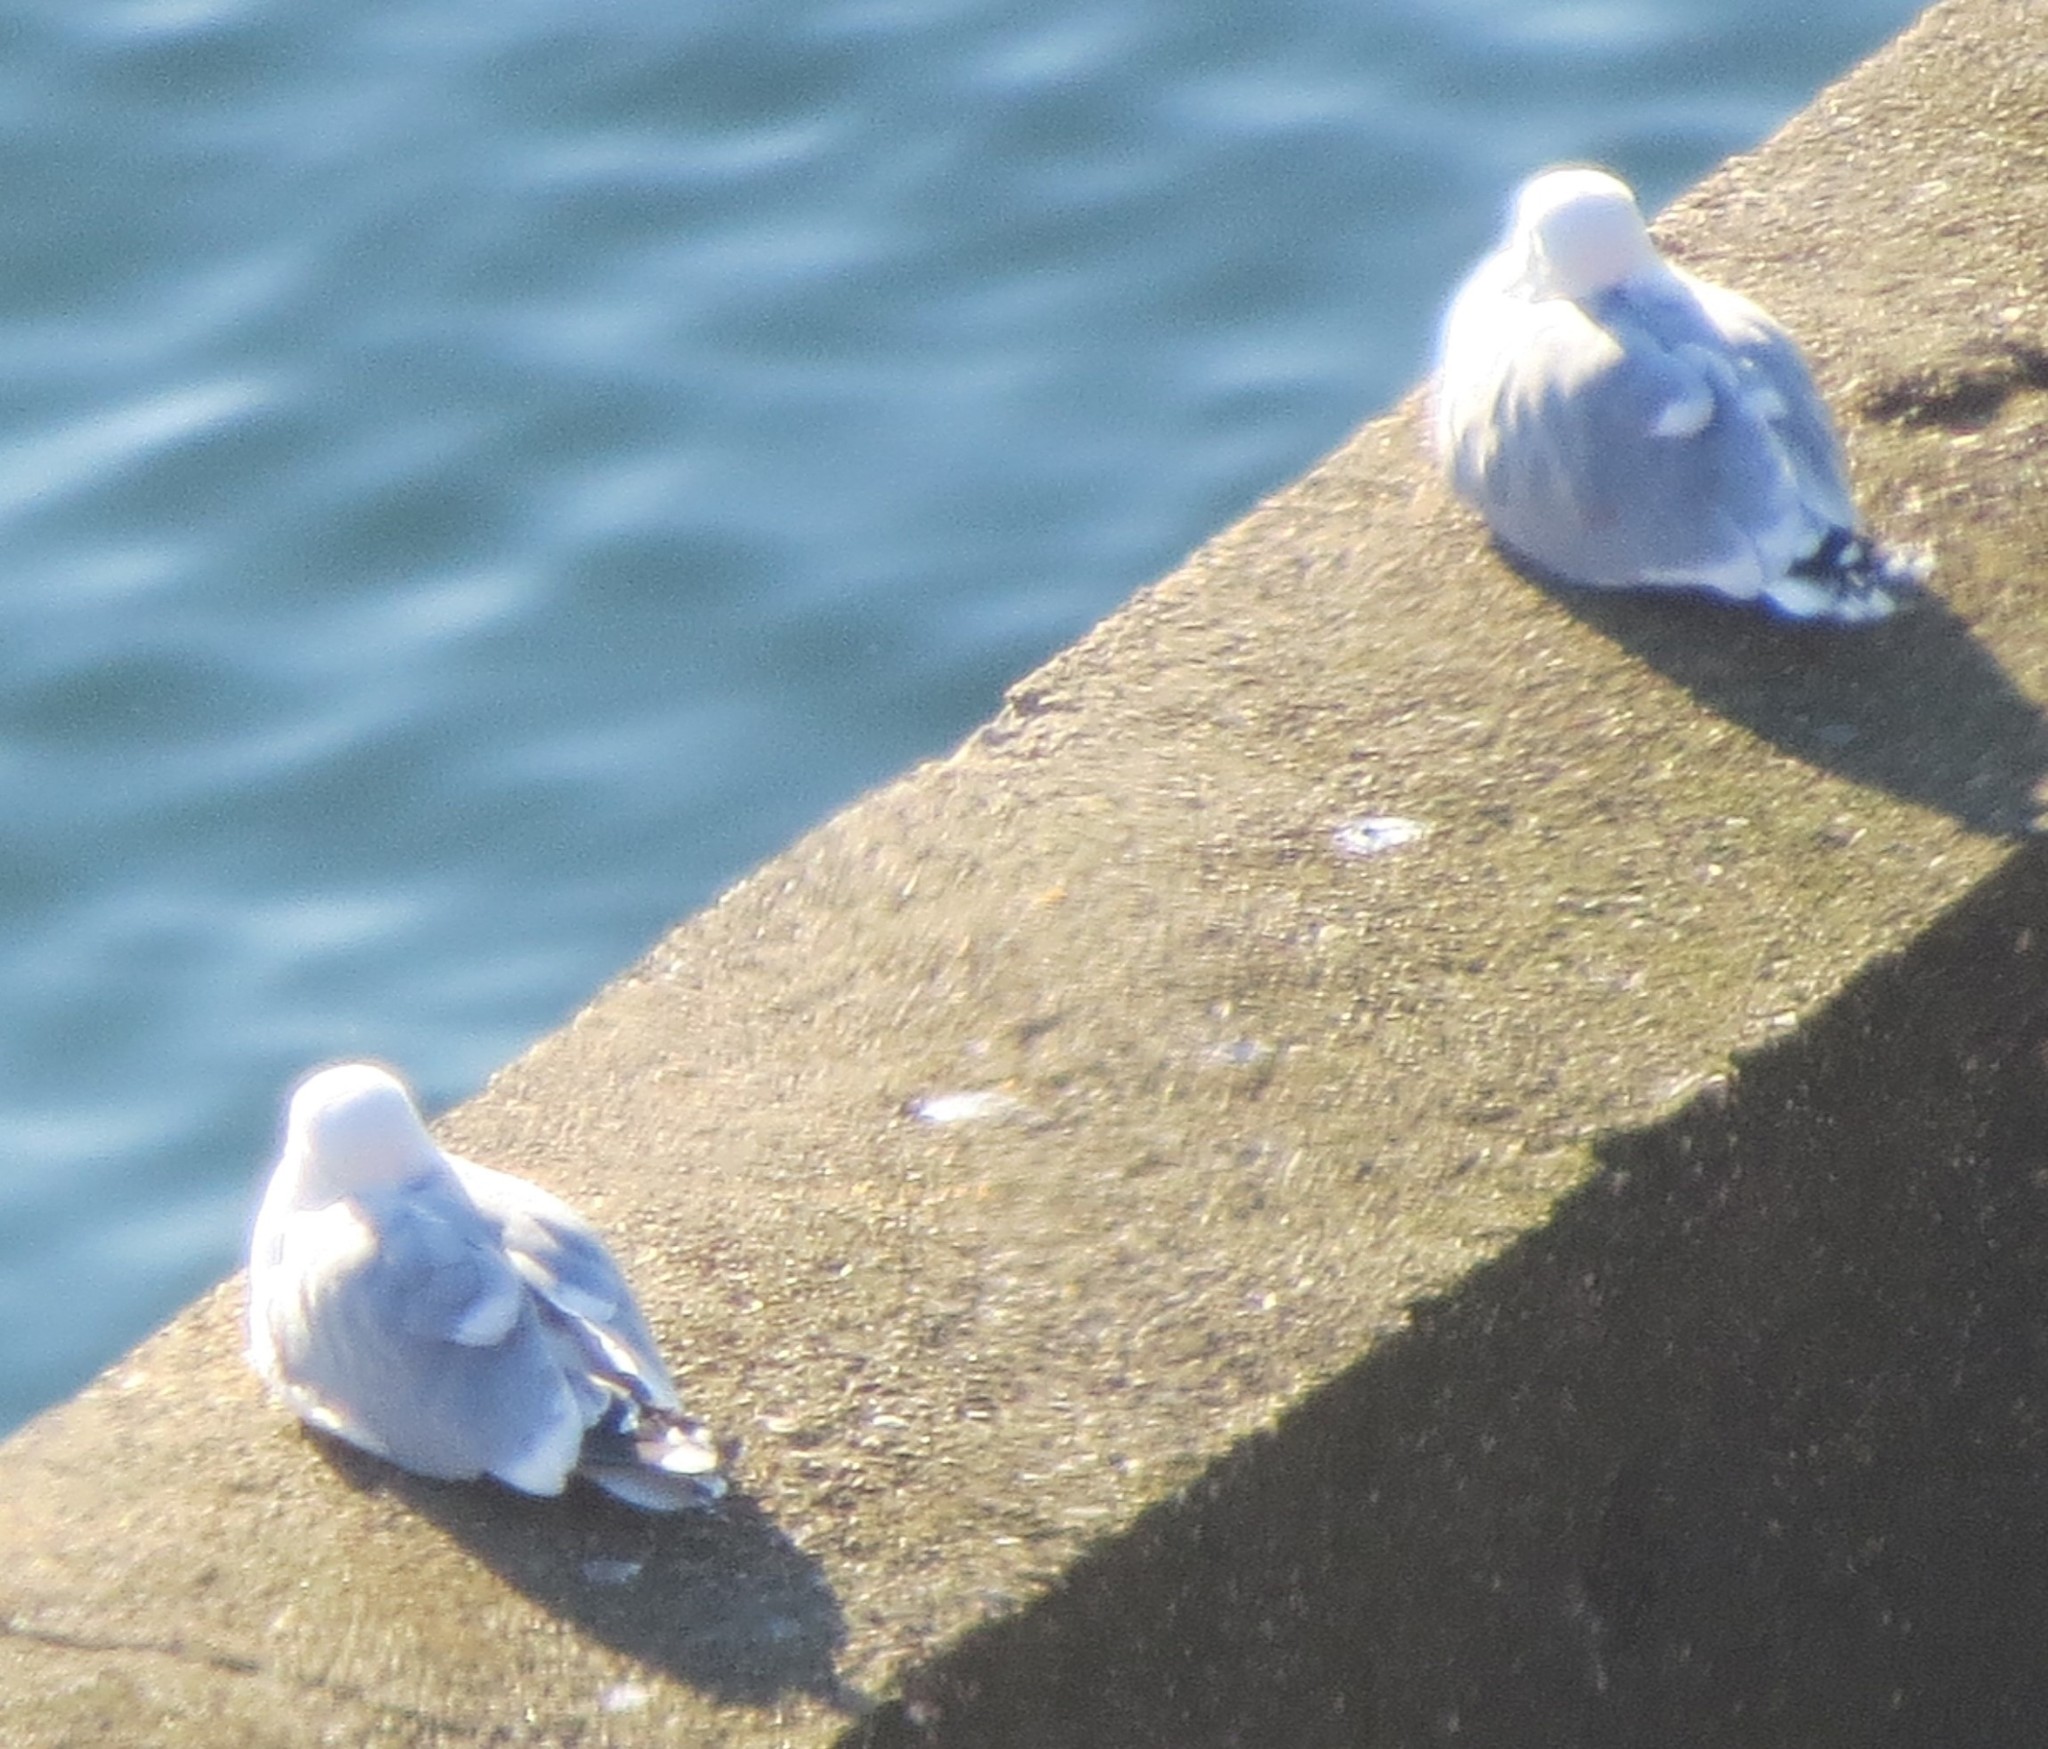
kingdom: Animalia
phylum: Chordata
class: Aves
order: Charadriiformes
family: Laridae
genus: Larus
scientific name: Larus argentatus
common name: Herring gull
